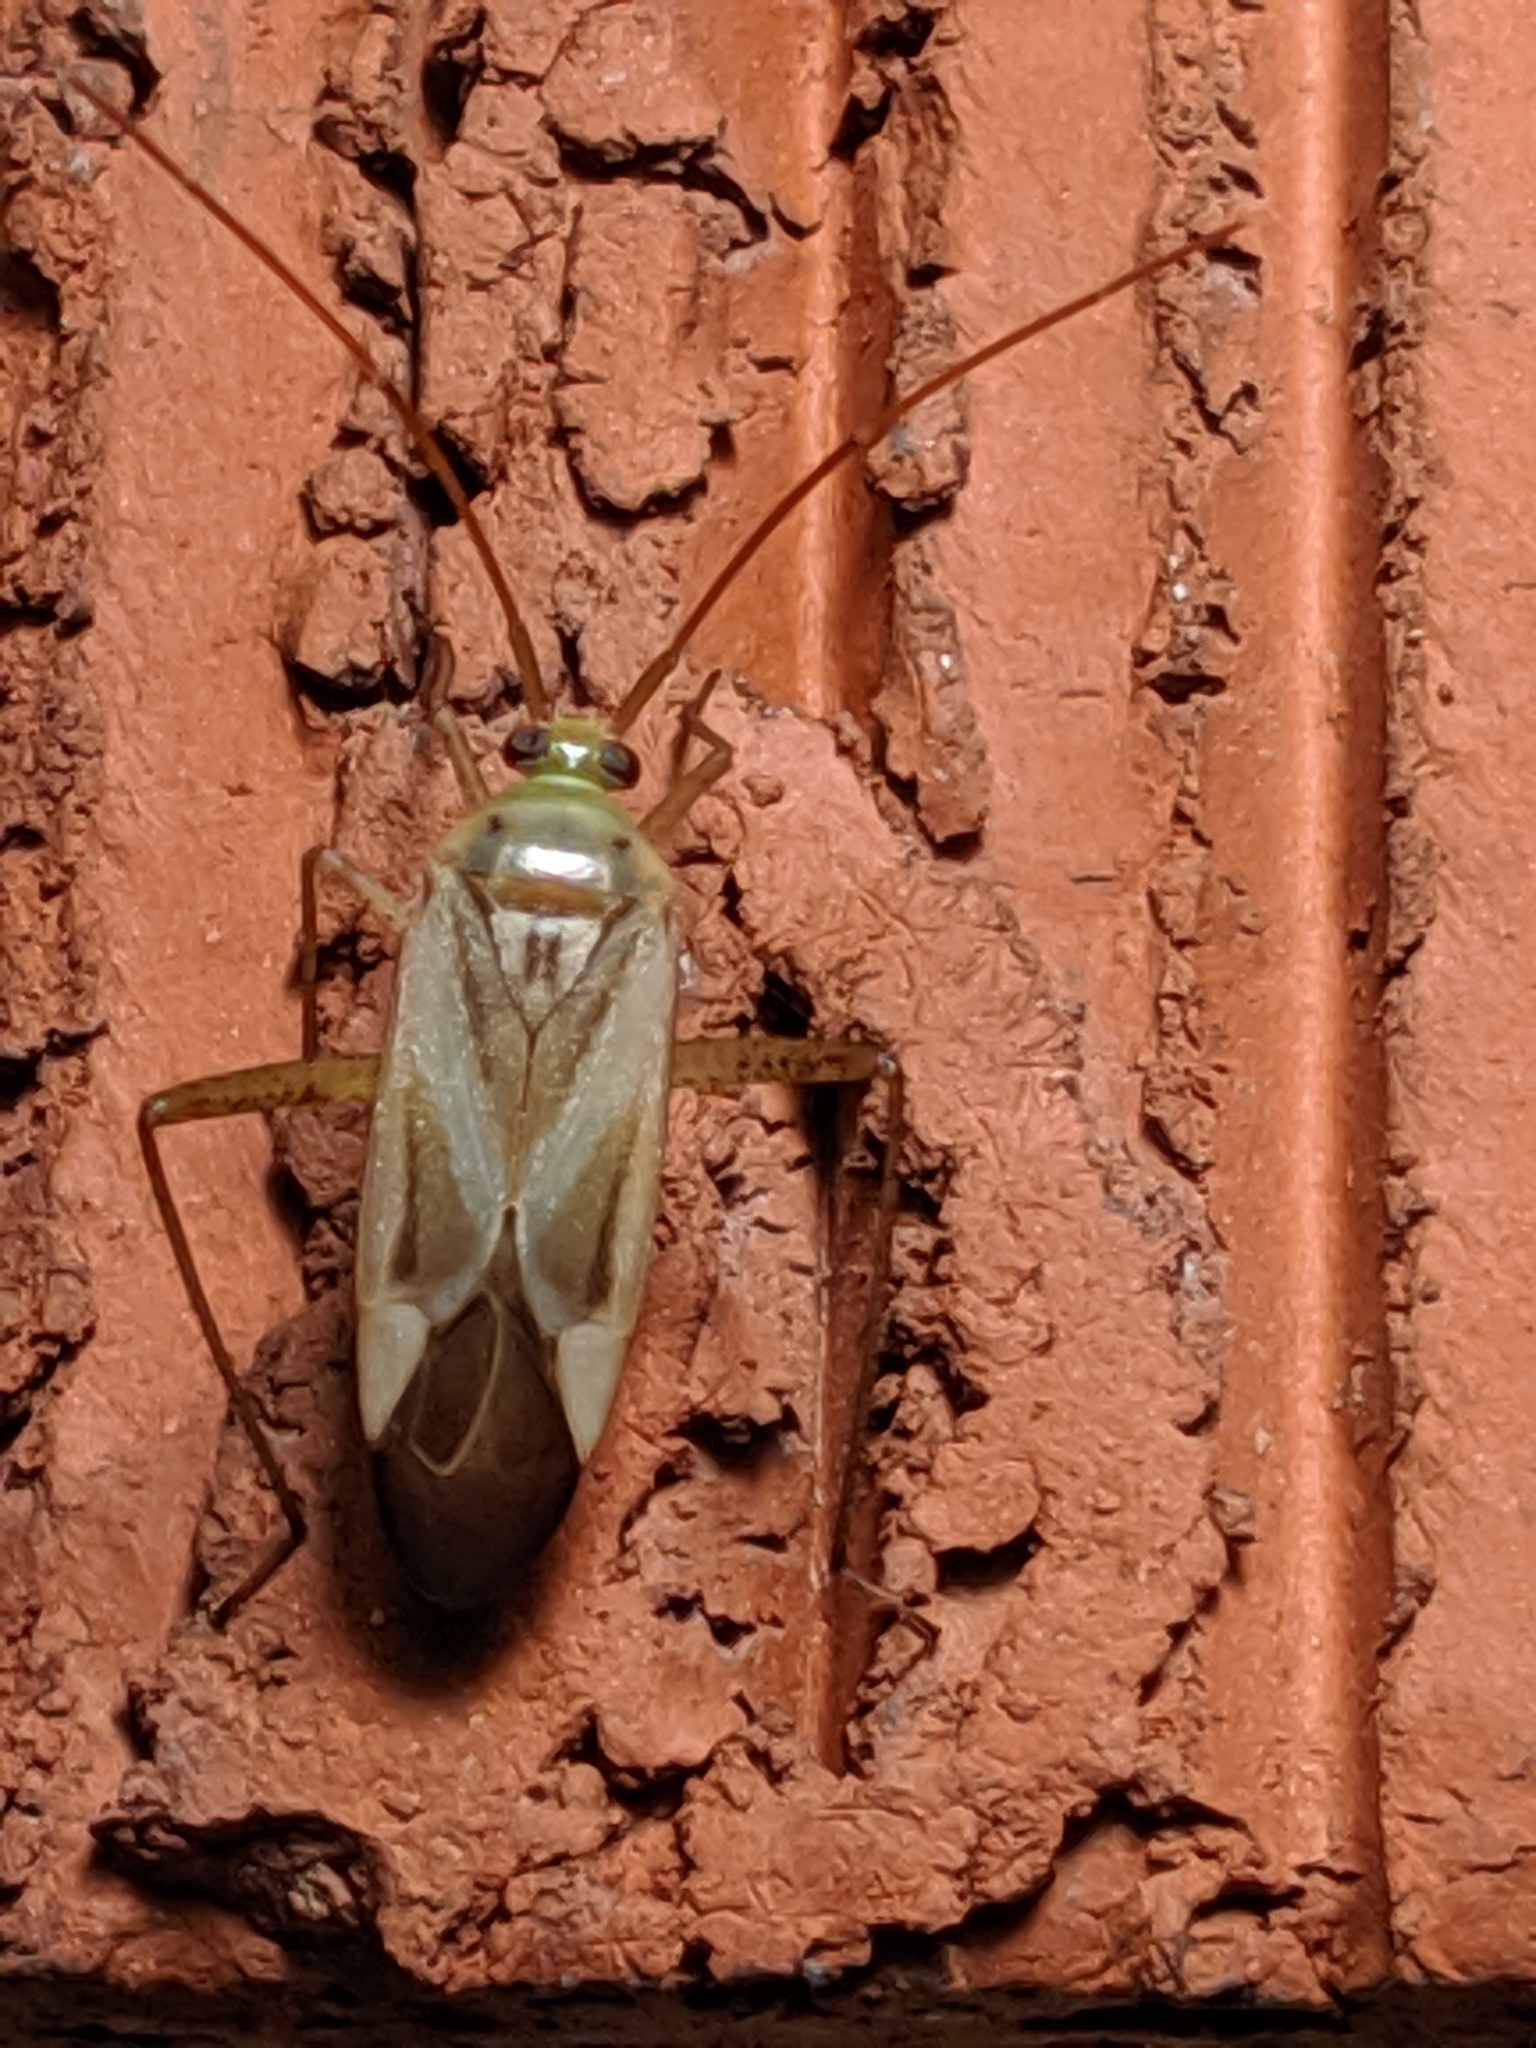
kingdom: Animalia
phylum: Arthropoda
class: Insecta
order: Hemiptera
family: Miridae
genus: Adelphocoris
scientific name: Adelphocoris lineolatus
